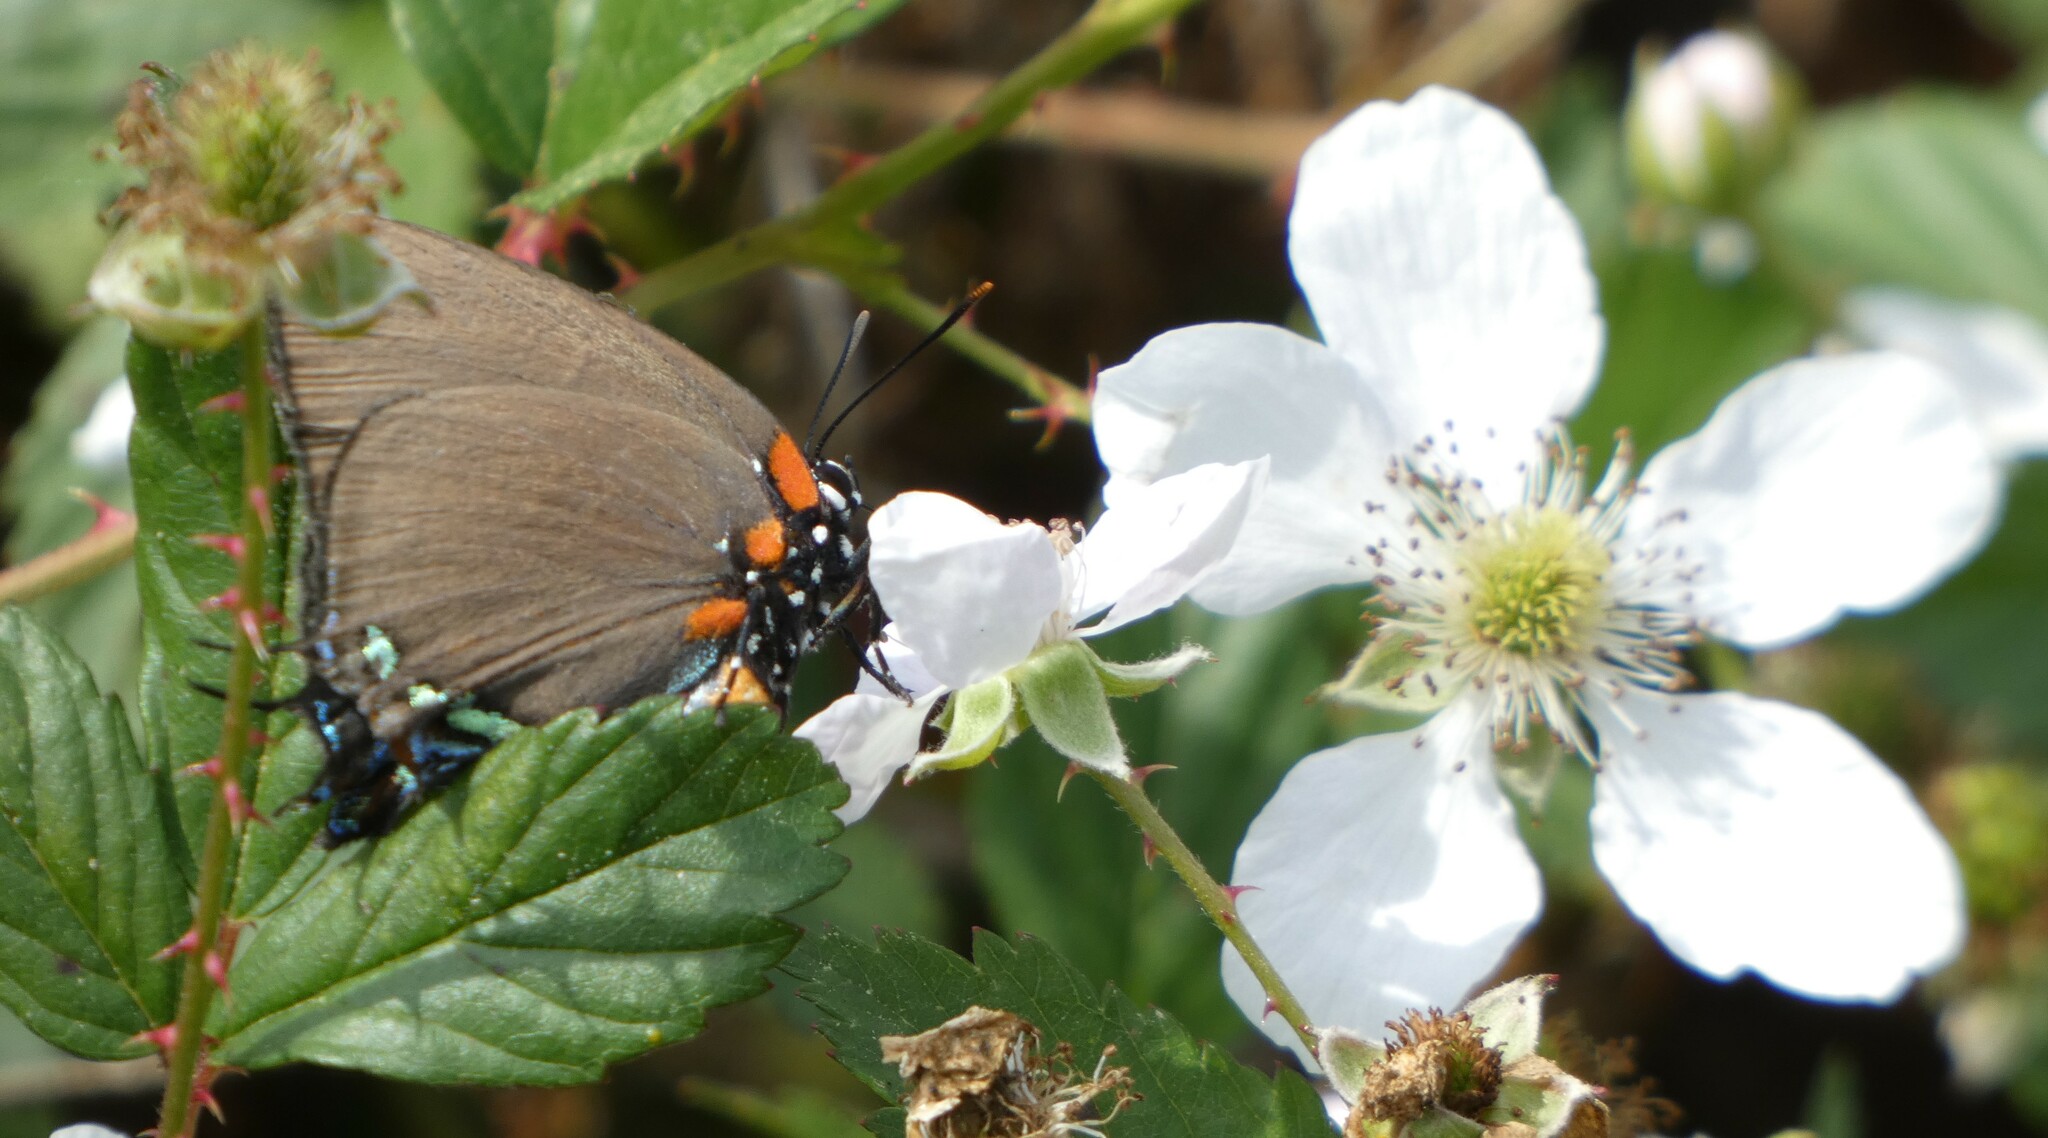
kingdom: Animalia
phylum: Arthropoda
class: Insecta
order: Lepidoptera
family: Lycaenidae
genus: Atlides
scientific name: Atlides halesus
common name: Great purple hairstreak
